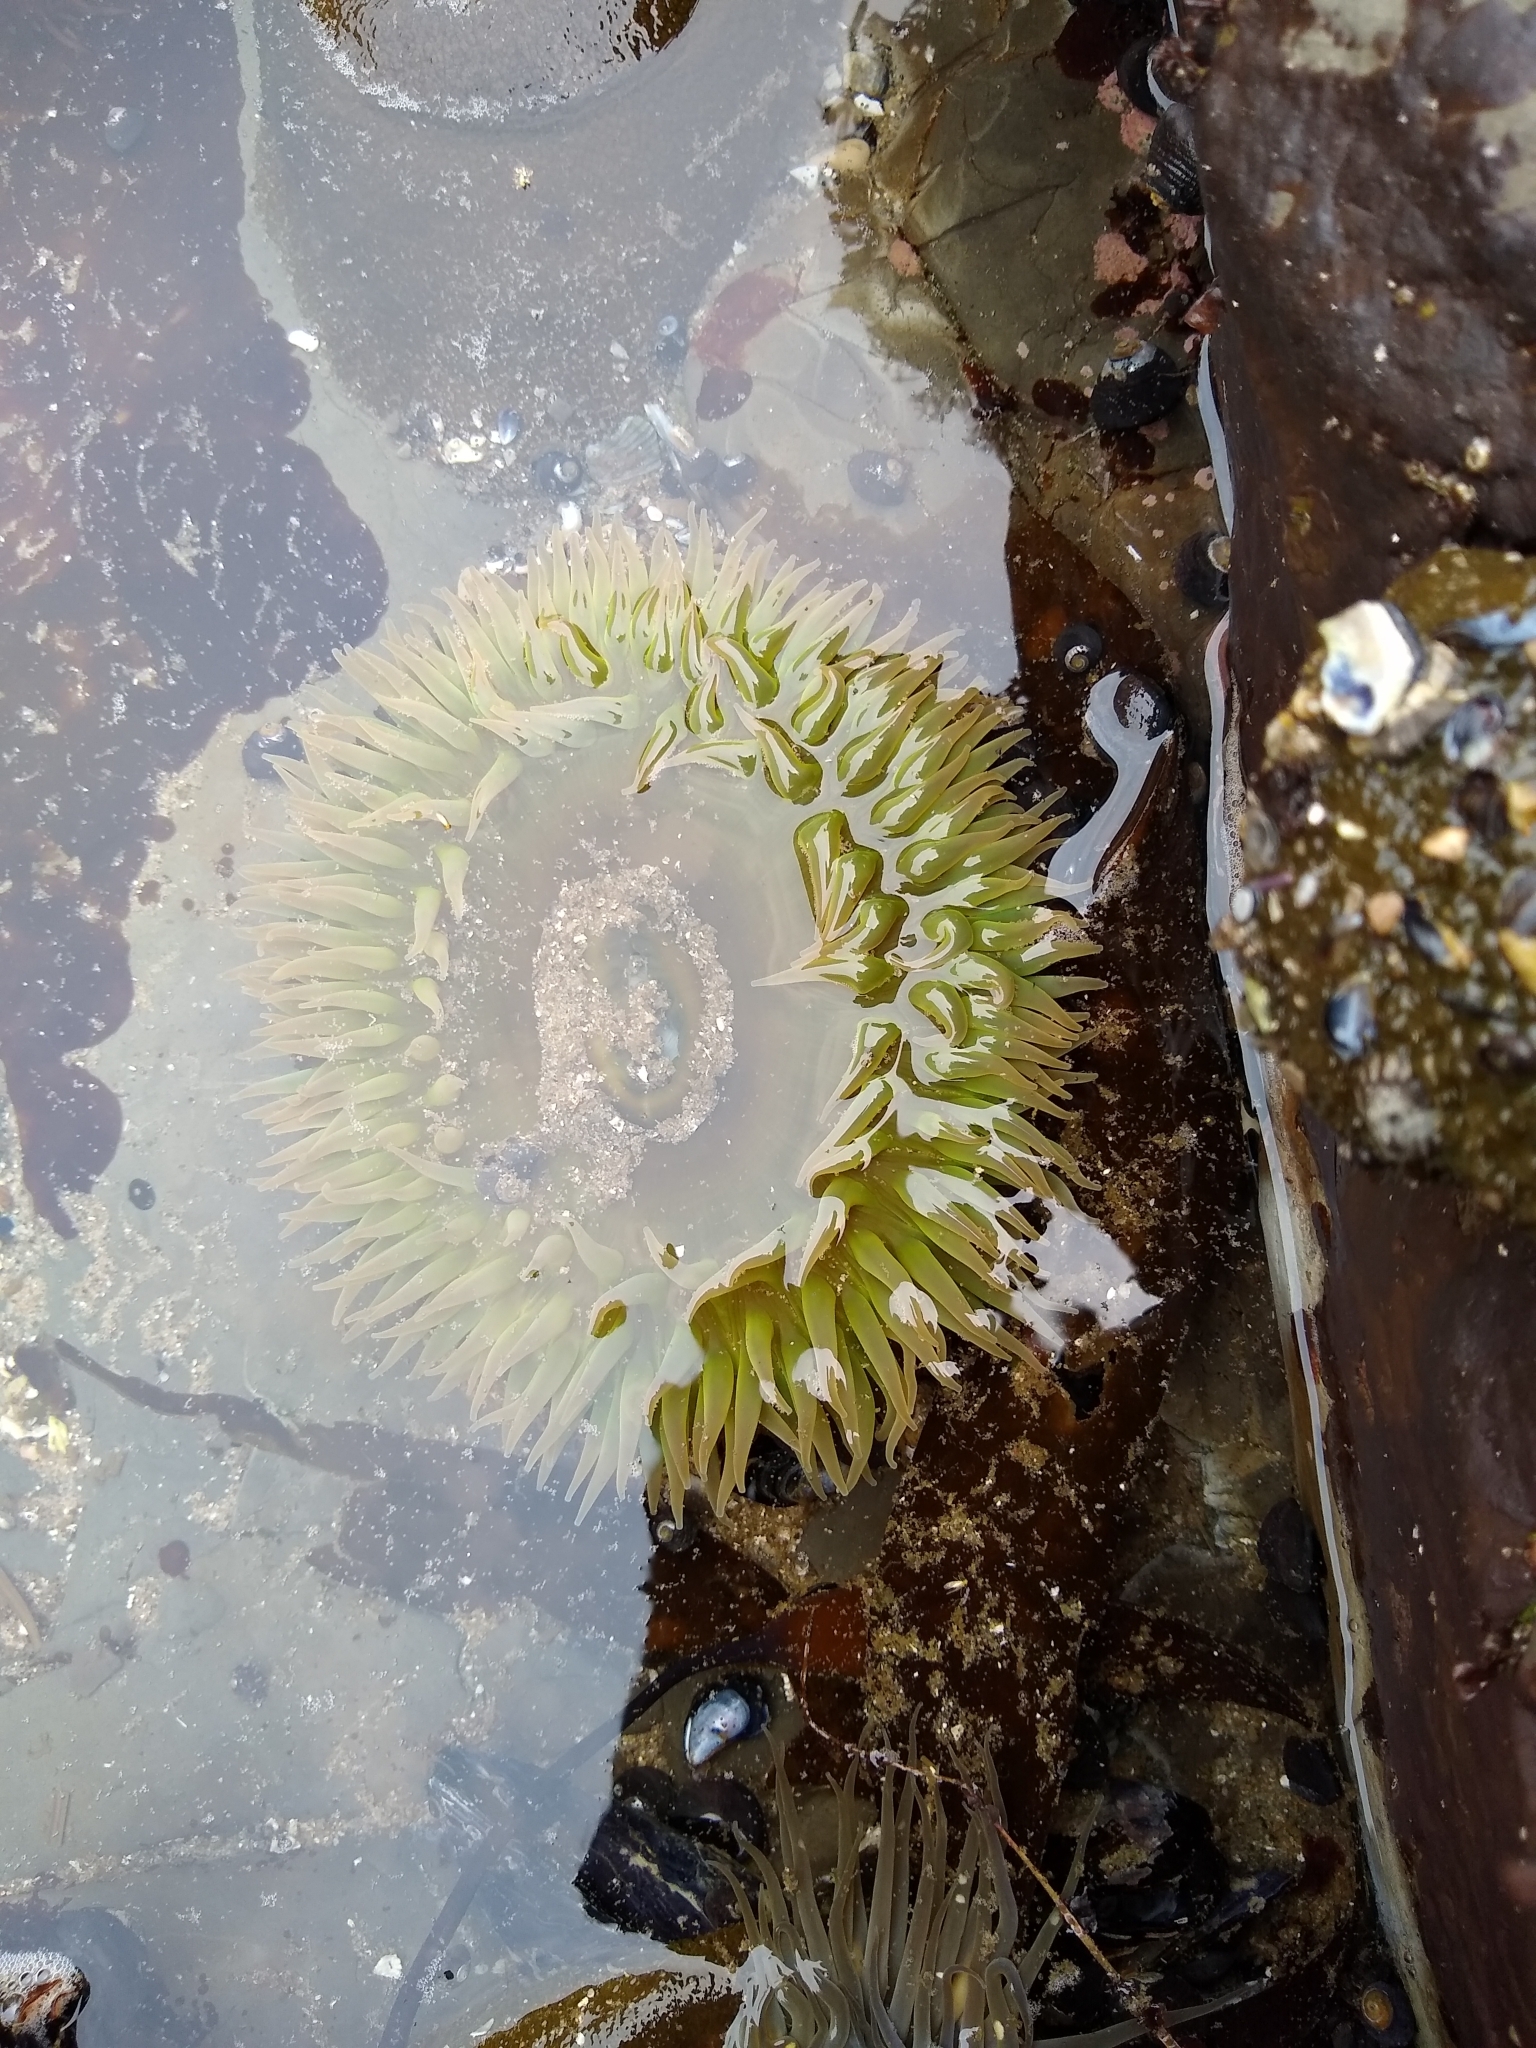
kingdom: Animalia
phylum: Cnidaria
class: Anthozoa
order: Actiniaria
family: Actiniidae
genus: Anthopleura
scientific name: Anthopleura xanthogrammica
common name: Giant green anemone
